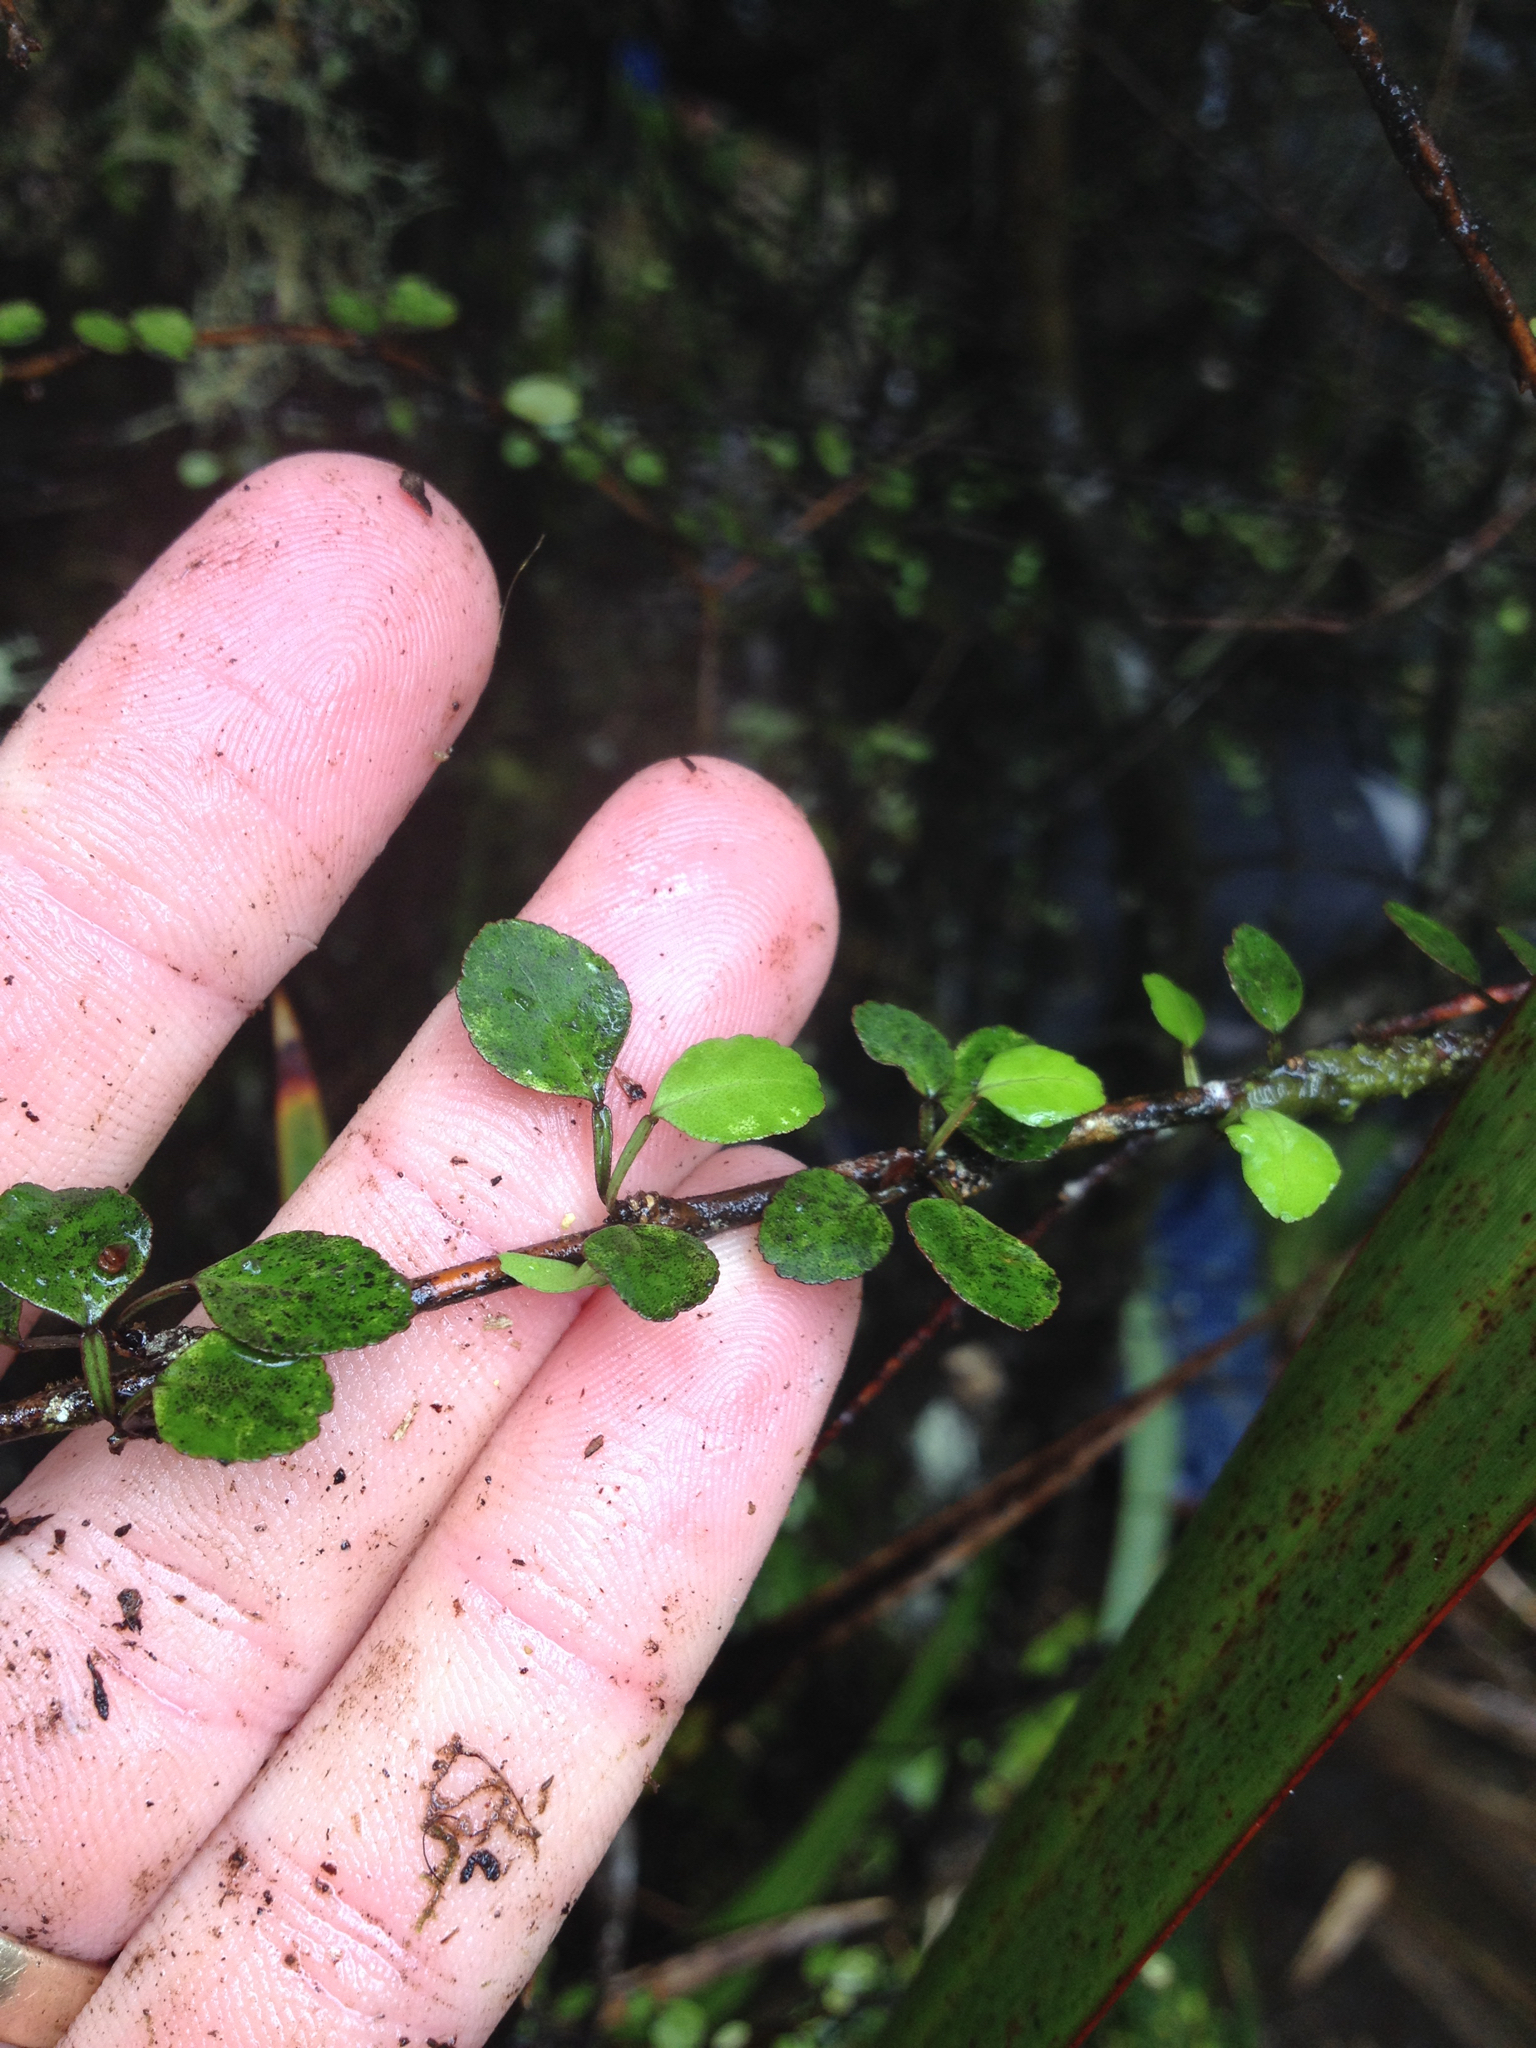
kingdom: Plantae
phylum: Tracheophyta
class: Magnoliopsida
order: Sapindales
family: Rutaceae
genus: Melicope
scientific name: Melicope simplex
